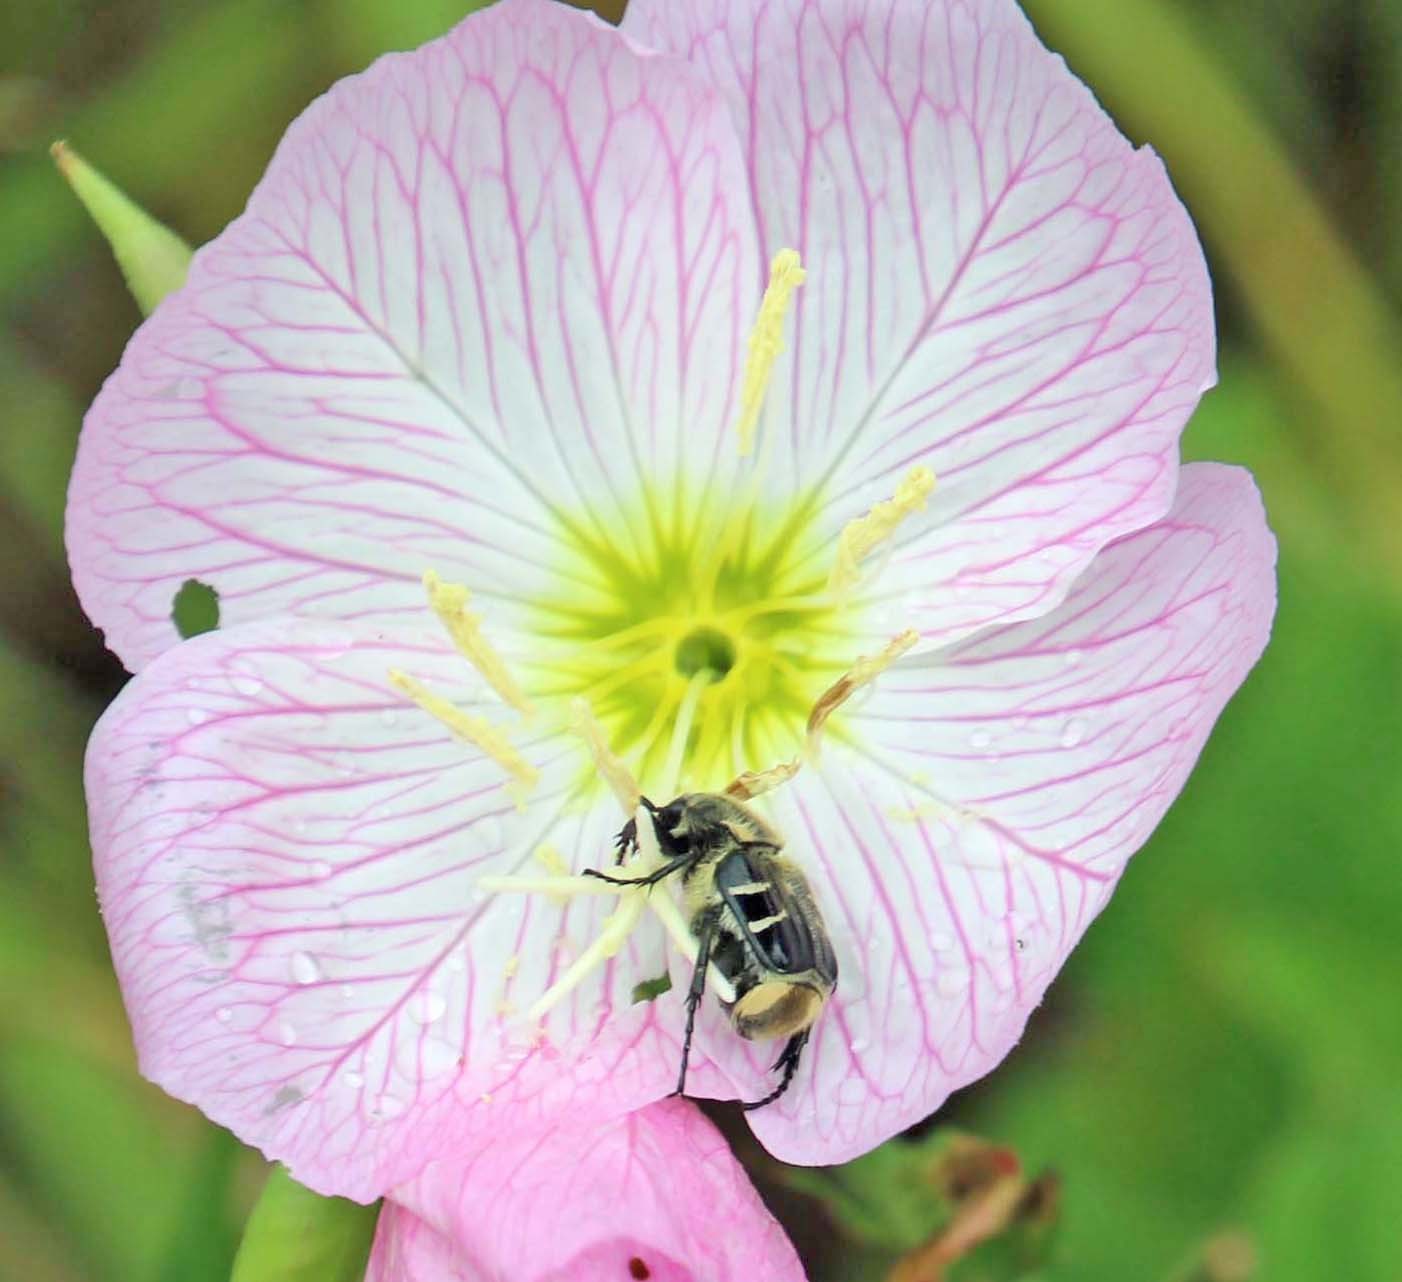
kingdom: Animalia
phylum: Arthropoda
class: Insecta
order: Coleoptera
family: Scarabaeidae
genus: Trichiotinus
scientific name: Trichiotinus texanus
